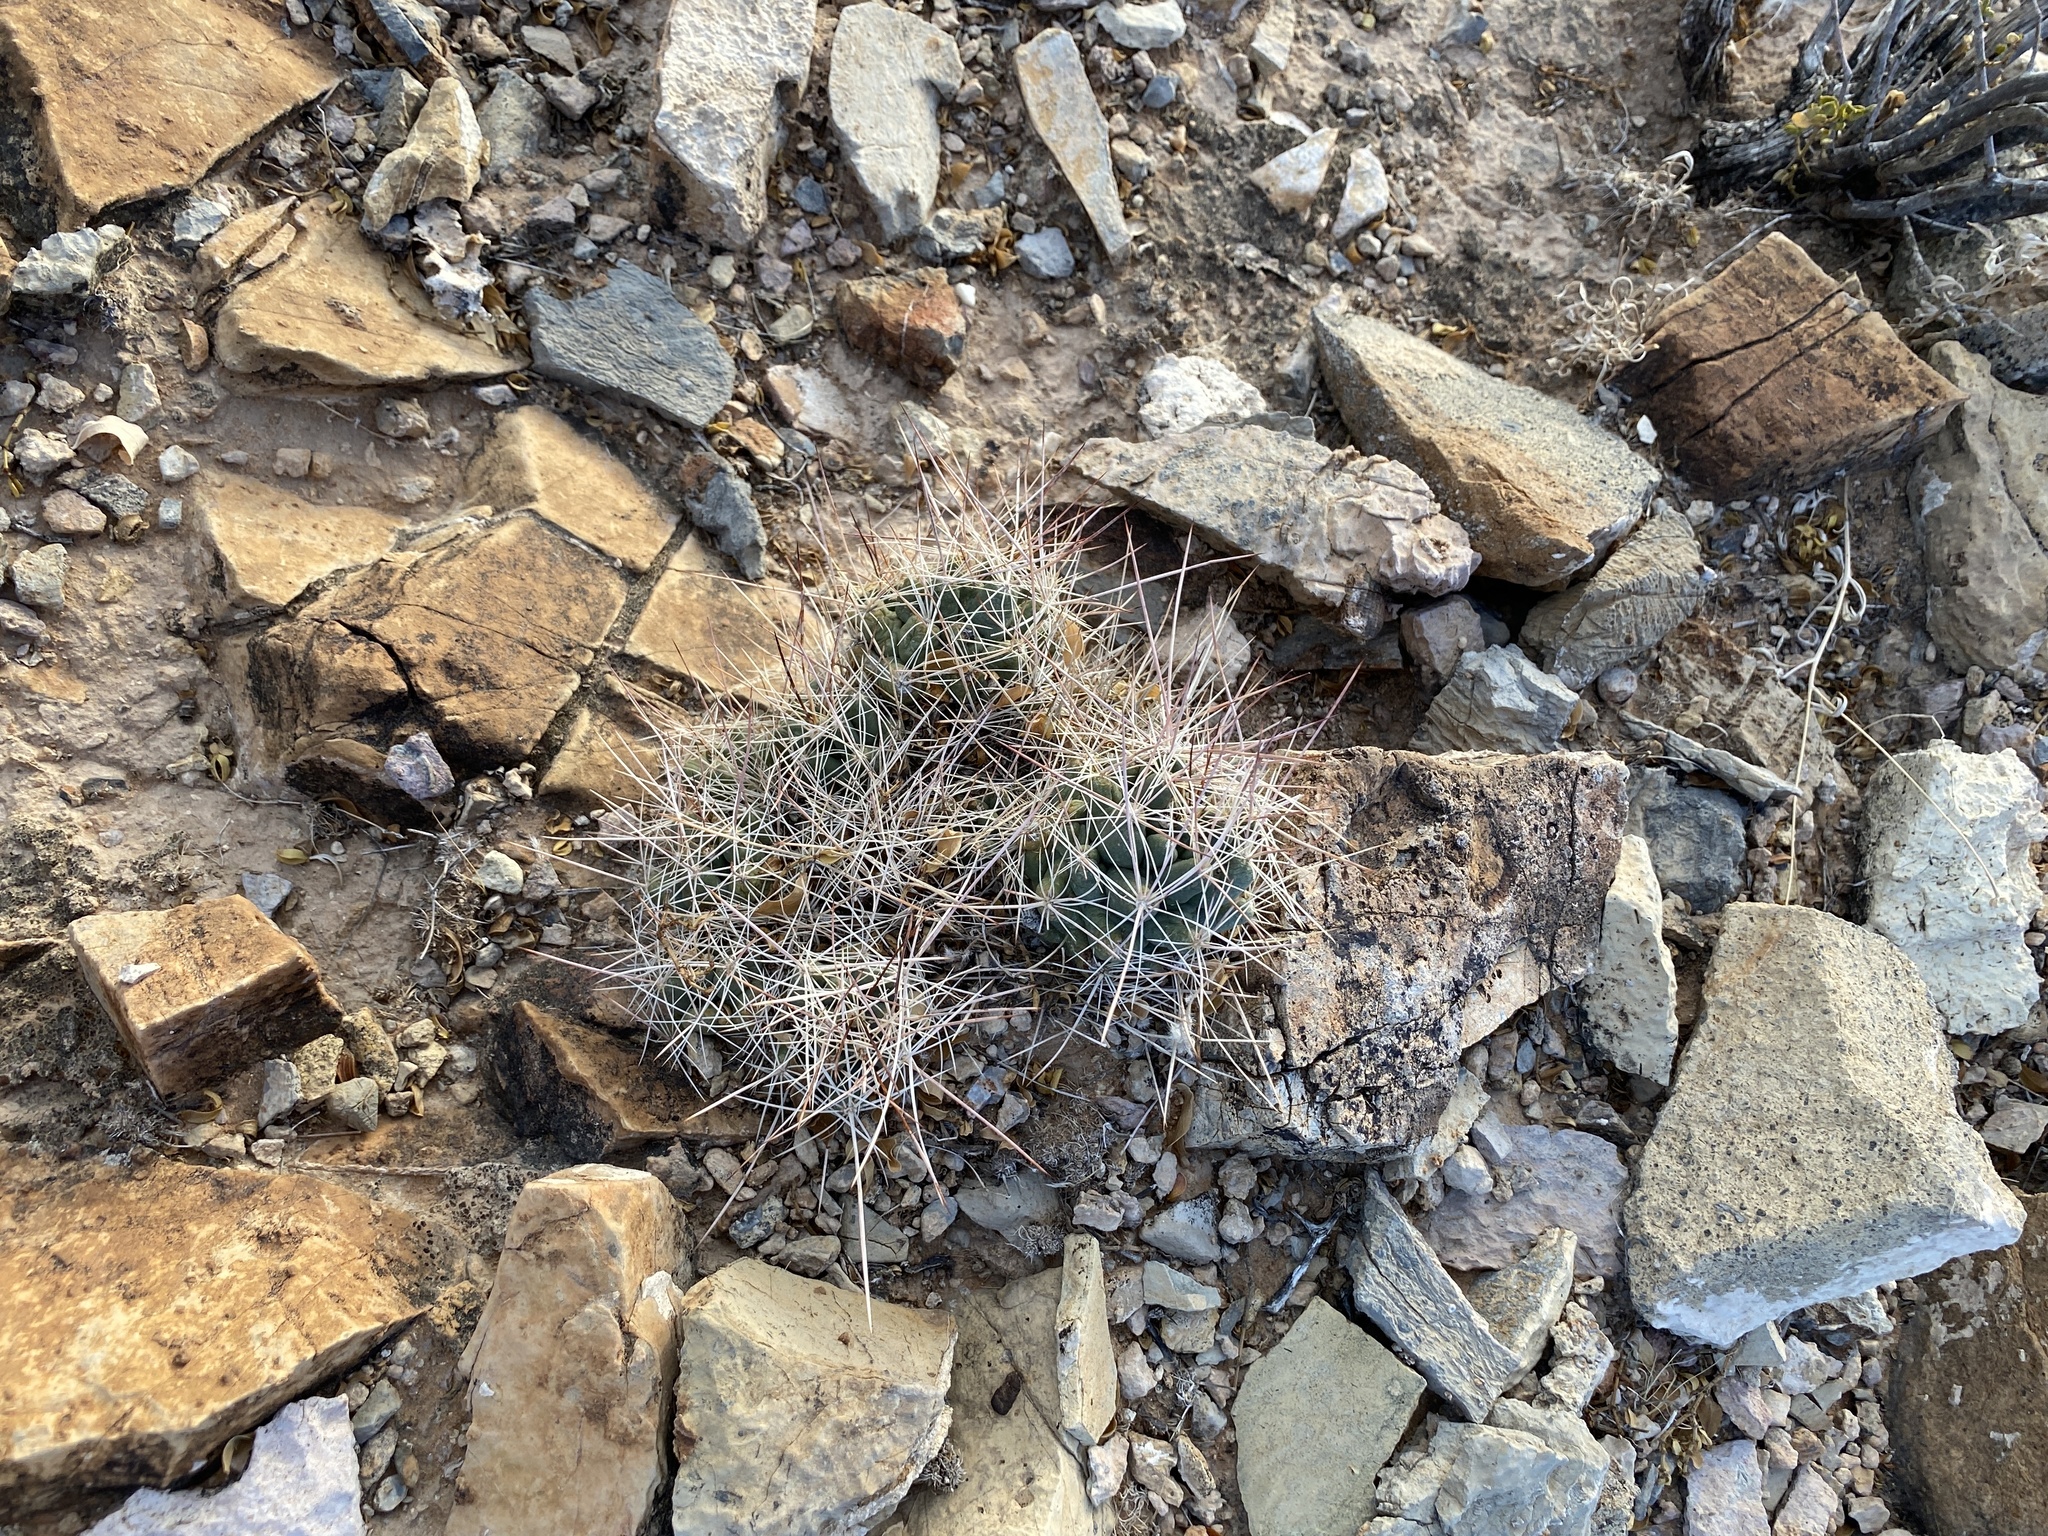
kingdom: Plantae
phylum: Tracheophyta
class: Magnoliopsida
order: Caryophyllales
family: Cactaceae
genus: Coryphantha
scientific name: Coryphantha macromeris
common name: Nipple beehive cactus
